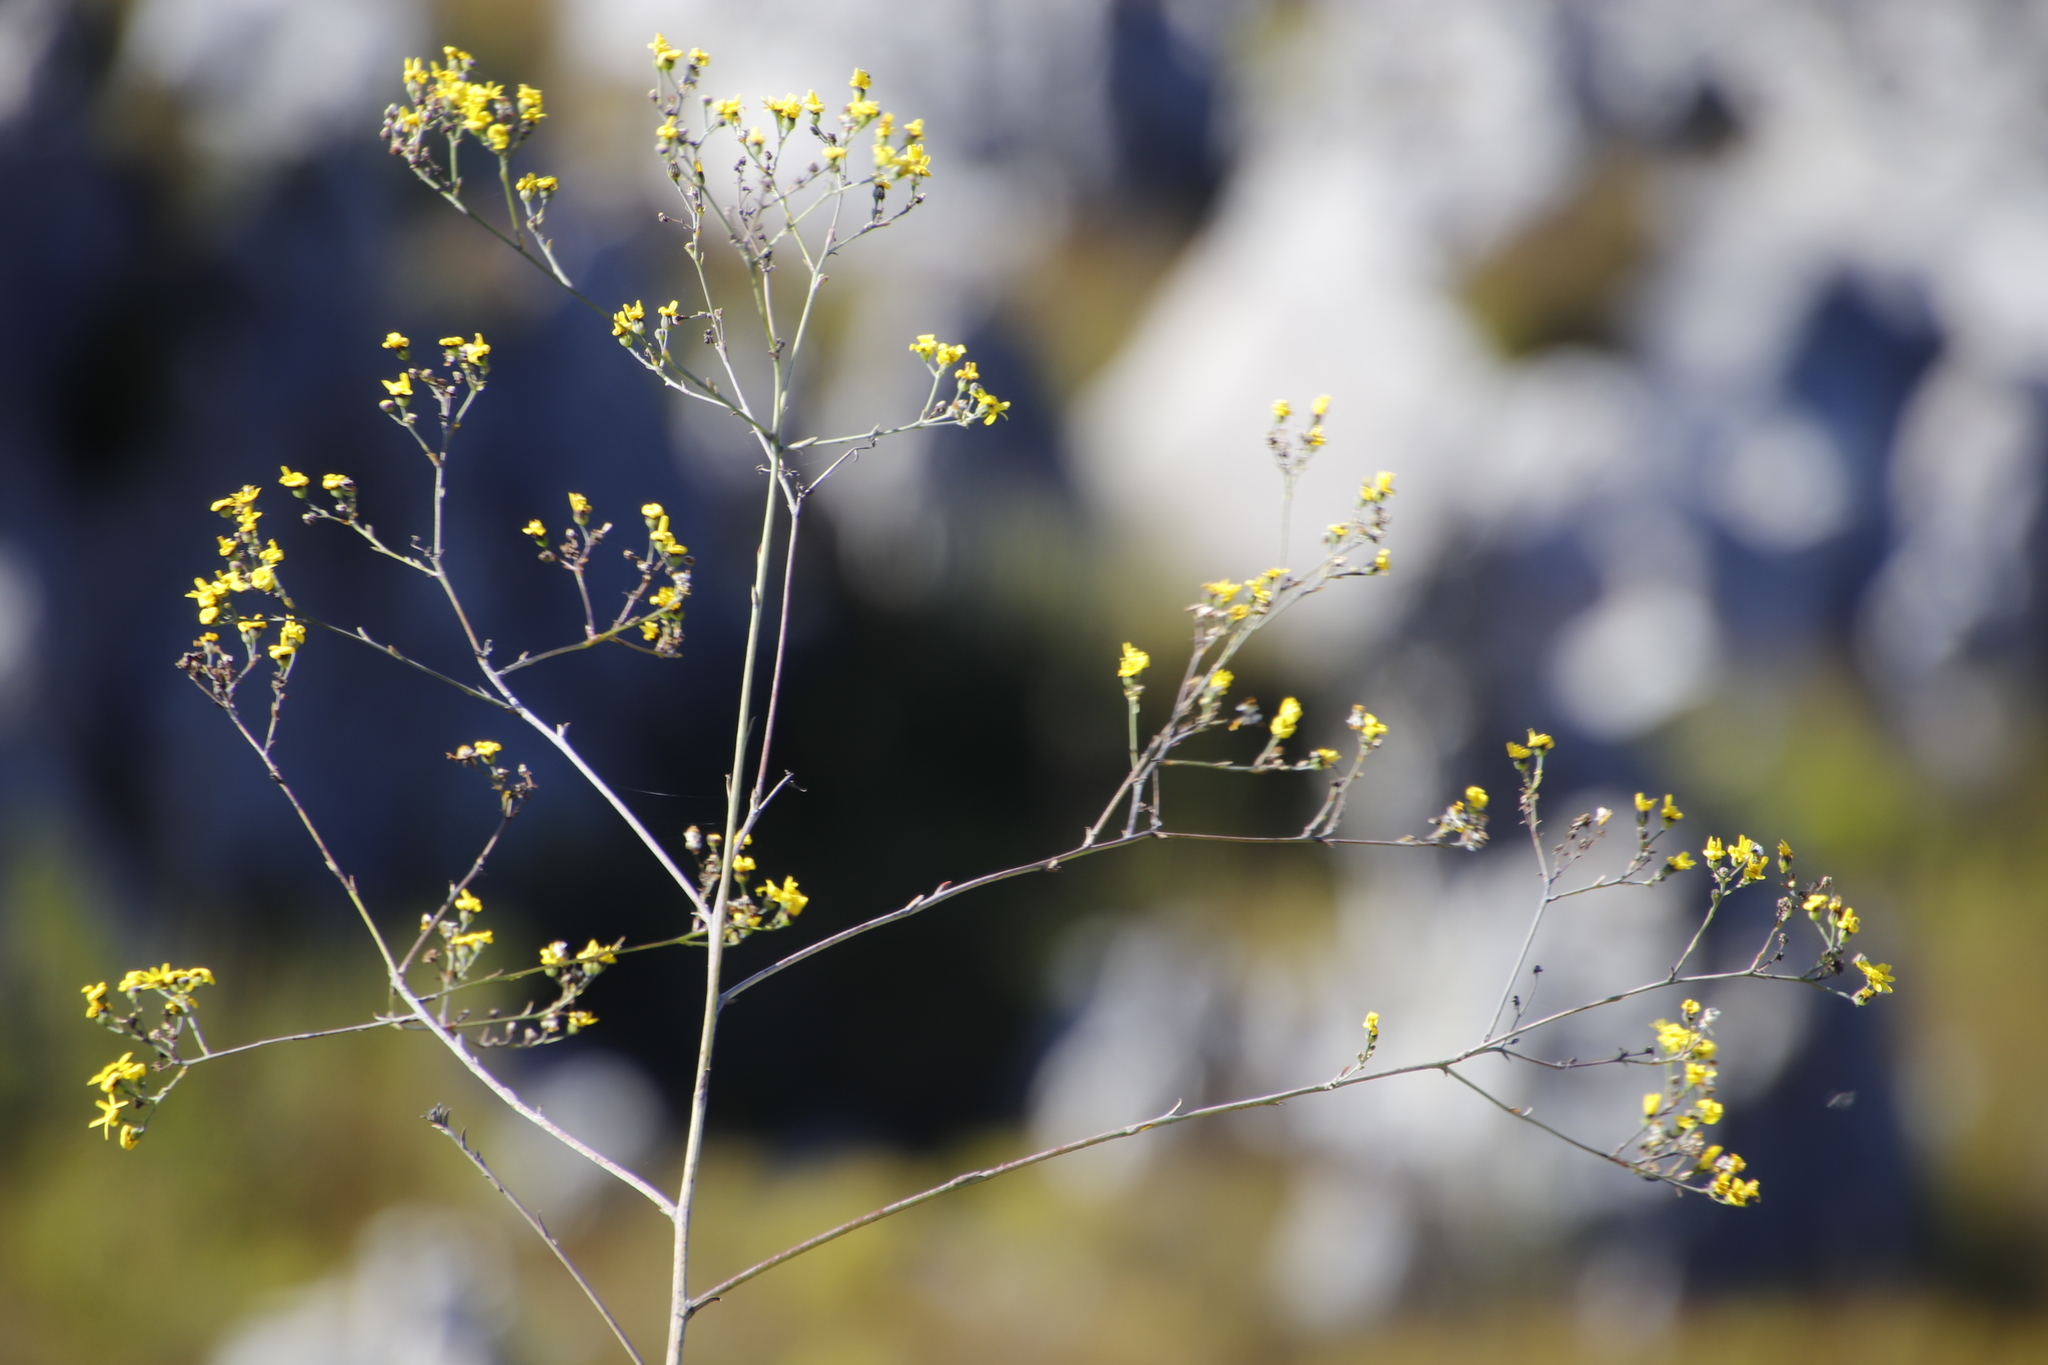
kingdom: Plantae
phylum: Tracheophyta
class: Magnoliopsida
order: Asterales
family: Asteraceae
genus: Othonna
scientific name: Othonna quinquedentata
